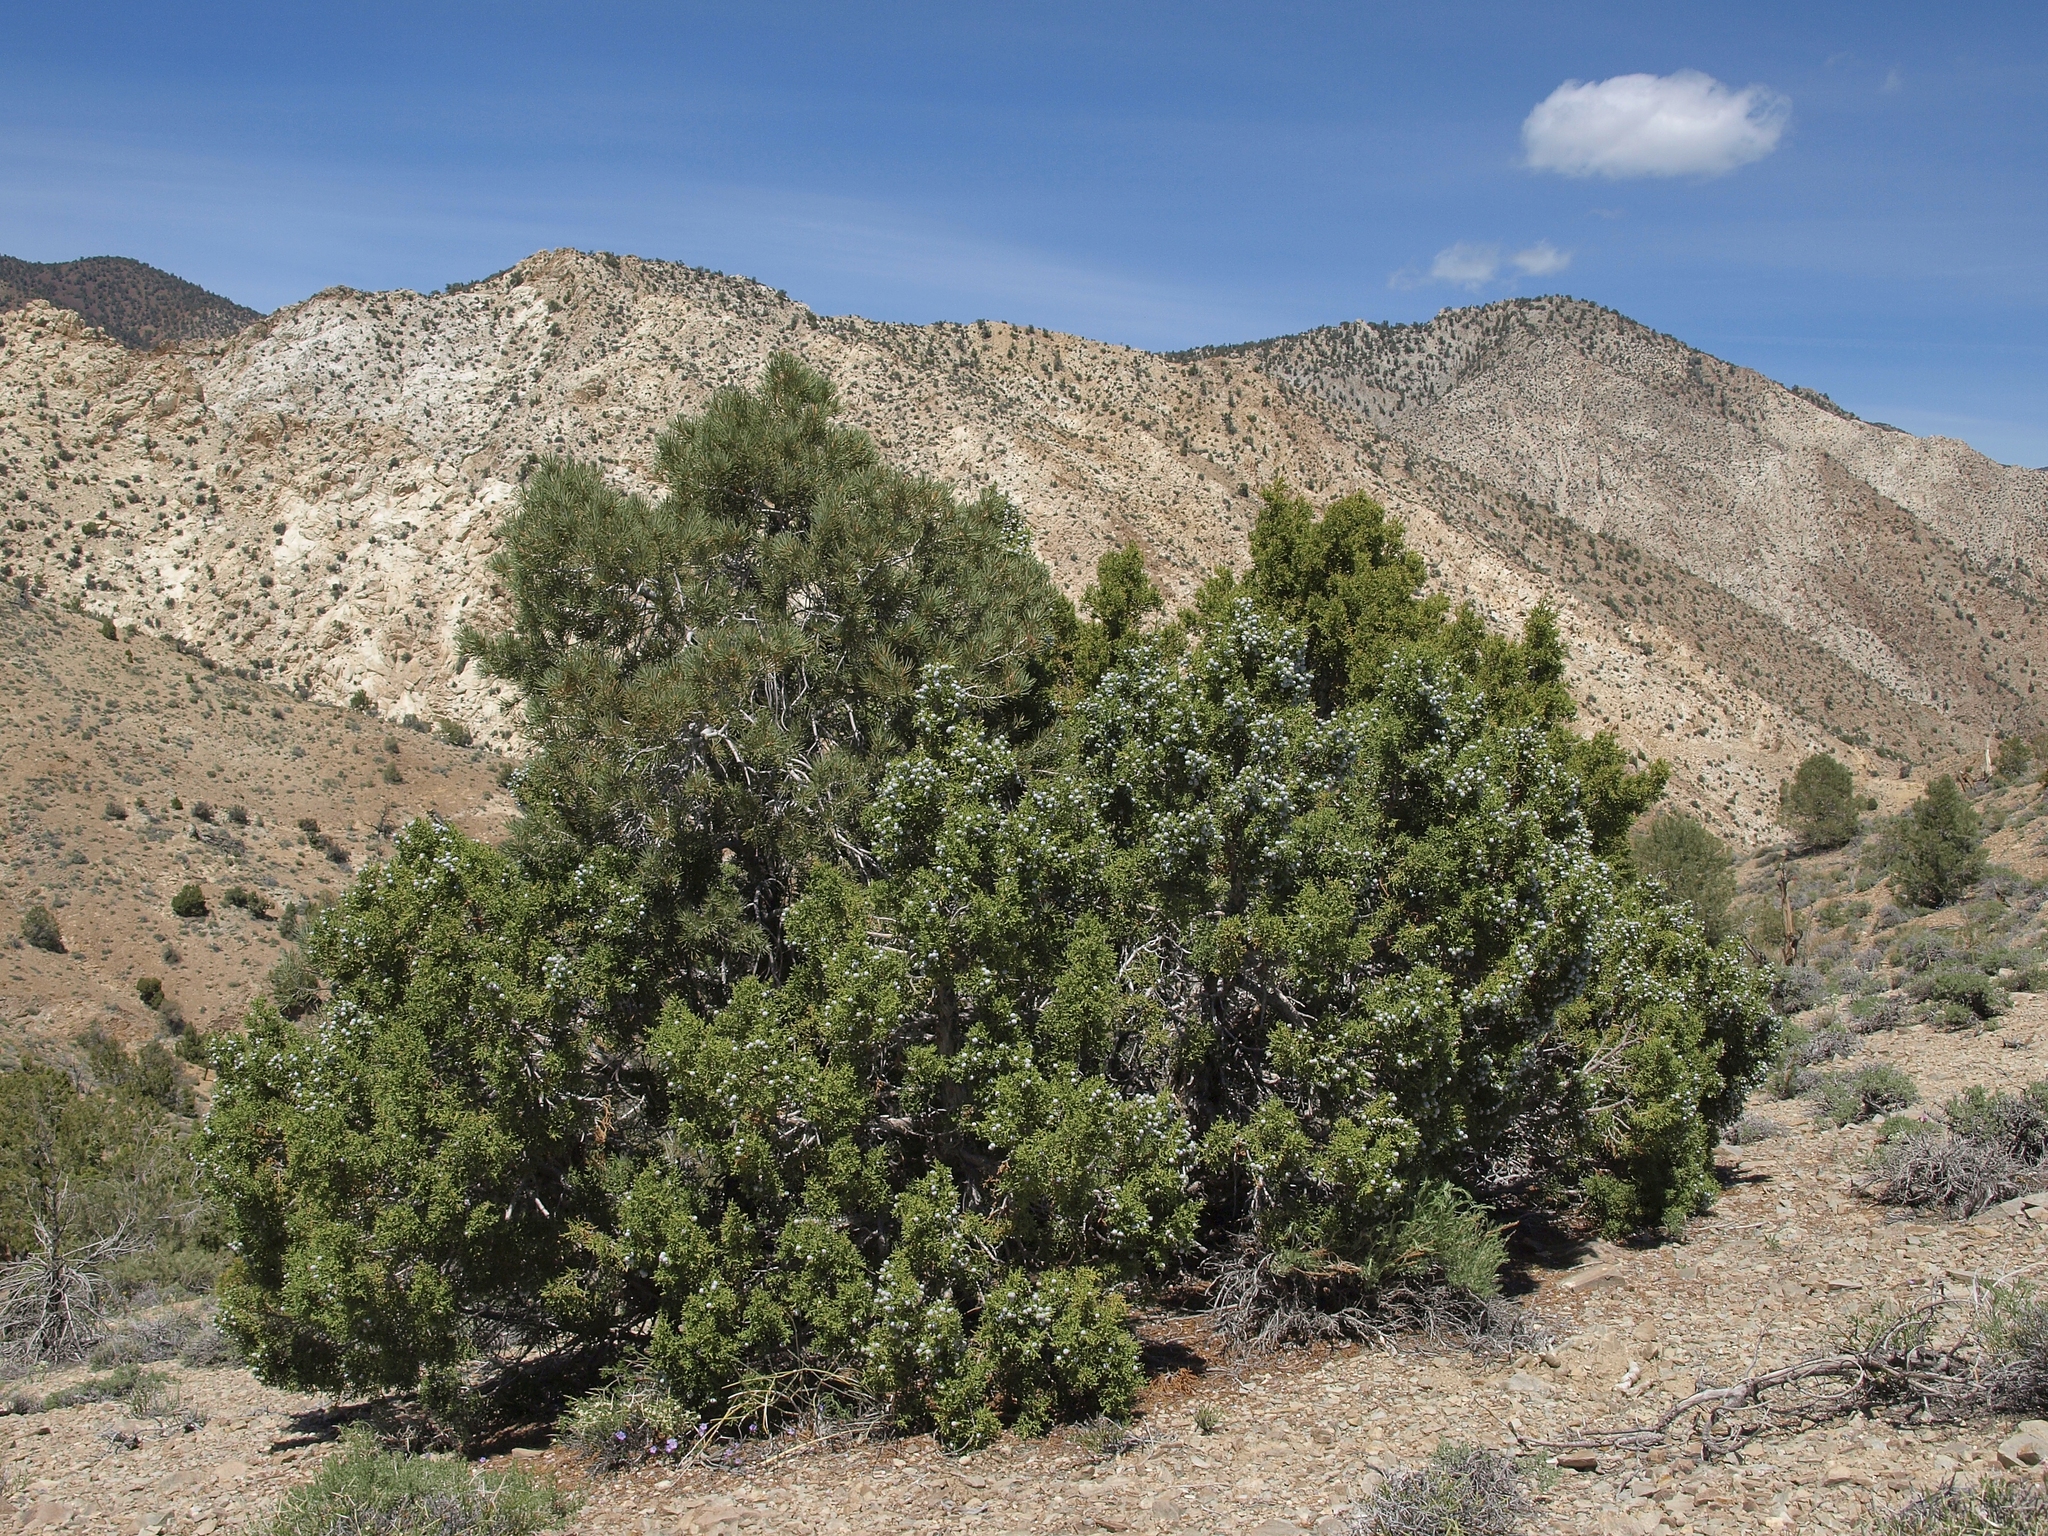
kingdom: Plantae
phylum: Tracheophyta
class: Pinopsida
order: Pinales
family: Cupressaceae
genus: Juniperus
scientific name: Juniperus osteosperma
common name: Utah juniper
